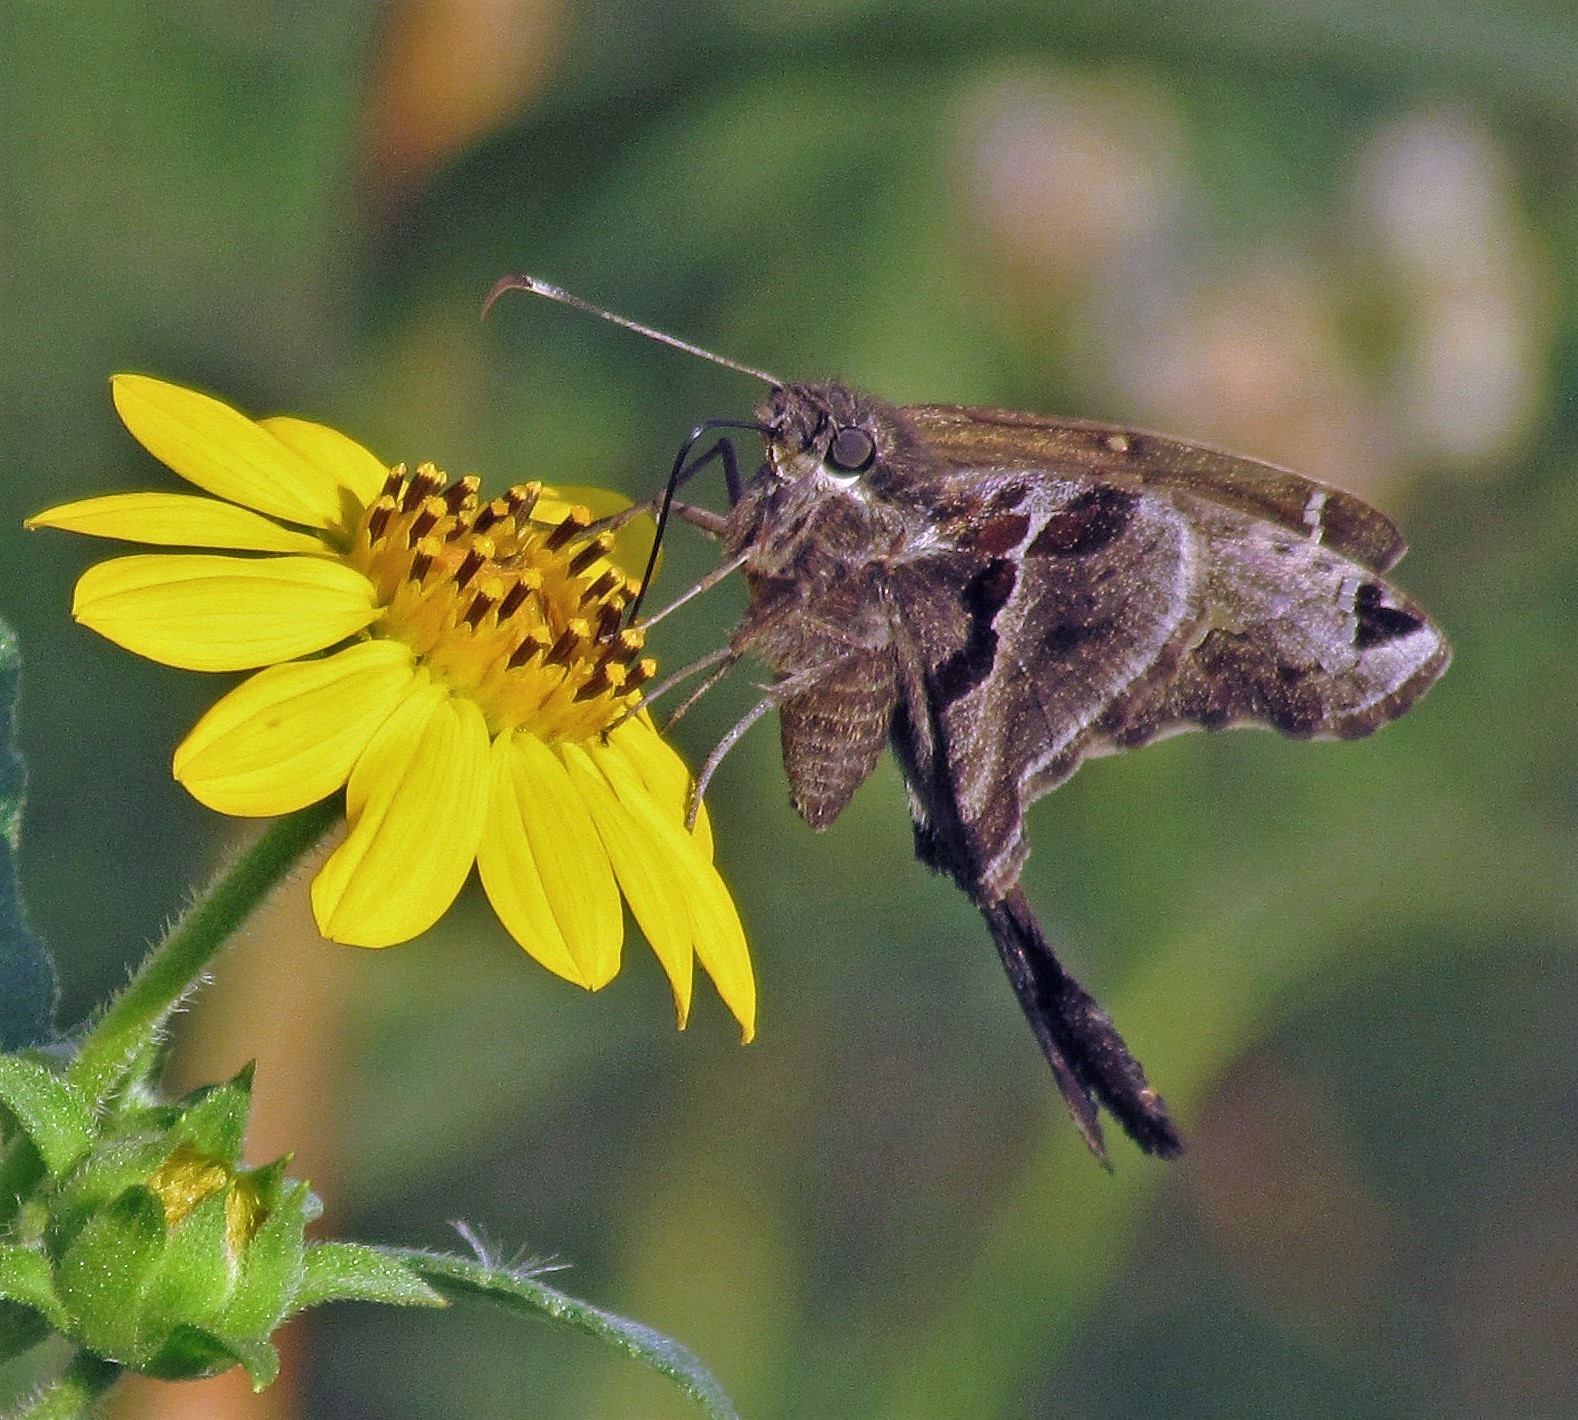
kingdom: Animalia
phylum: Arthropoda
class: Insecta
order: Lepidoptera
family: Hesperiidae
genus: Chioides
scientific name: Chioides catillus
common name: Silverbanded skipper
